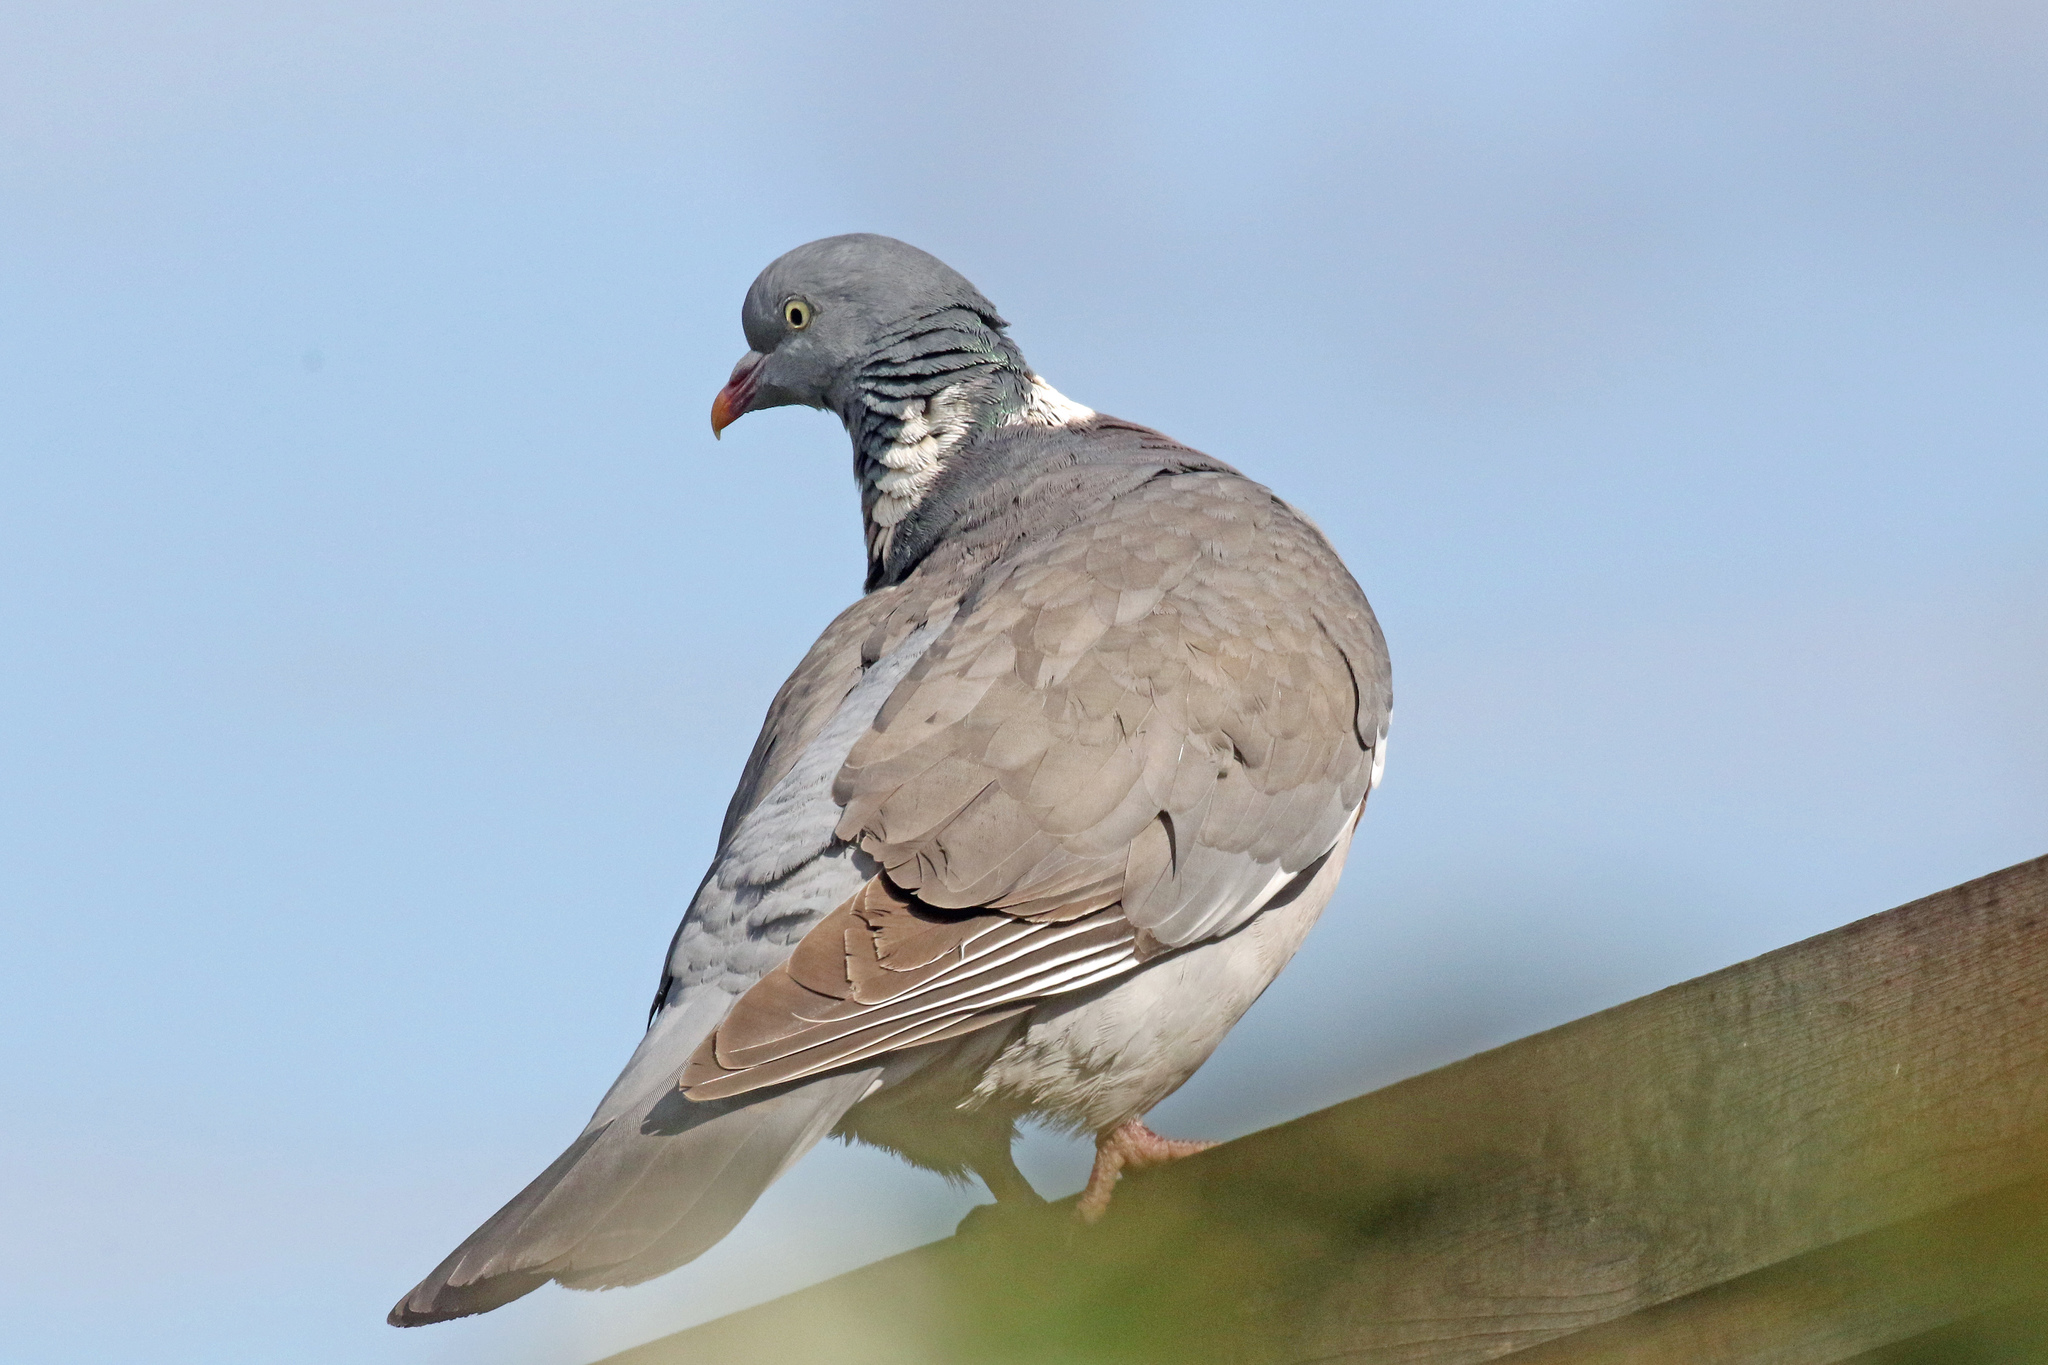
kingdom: Animalia
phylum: Chordata
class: Aves
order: Columbiformes
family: Columbidae
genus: Columba
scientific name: Columba palumbus
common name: Common wood pigeon
